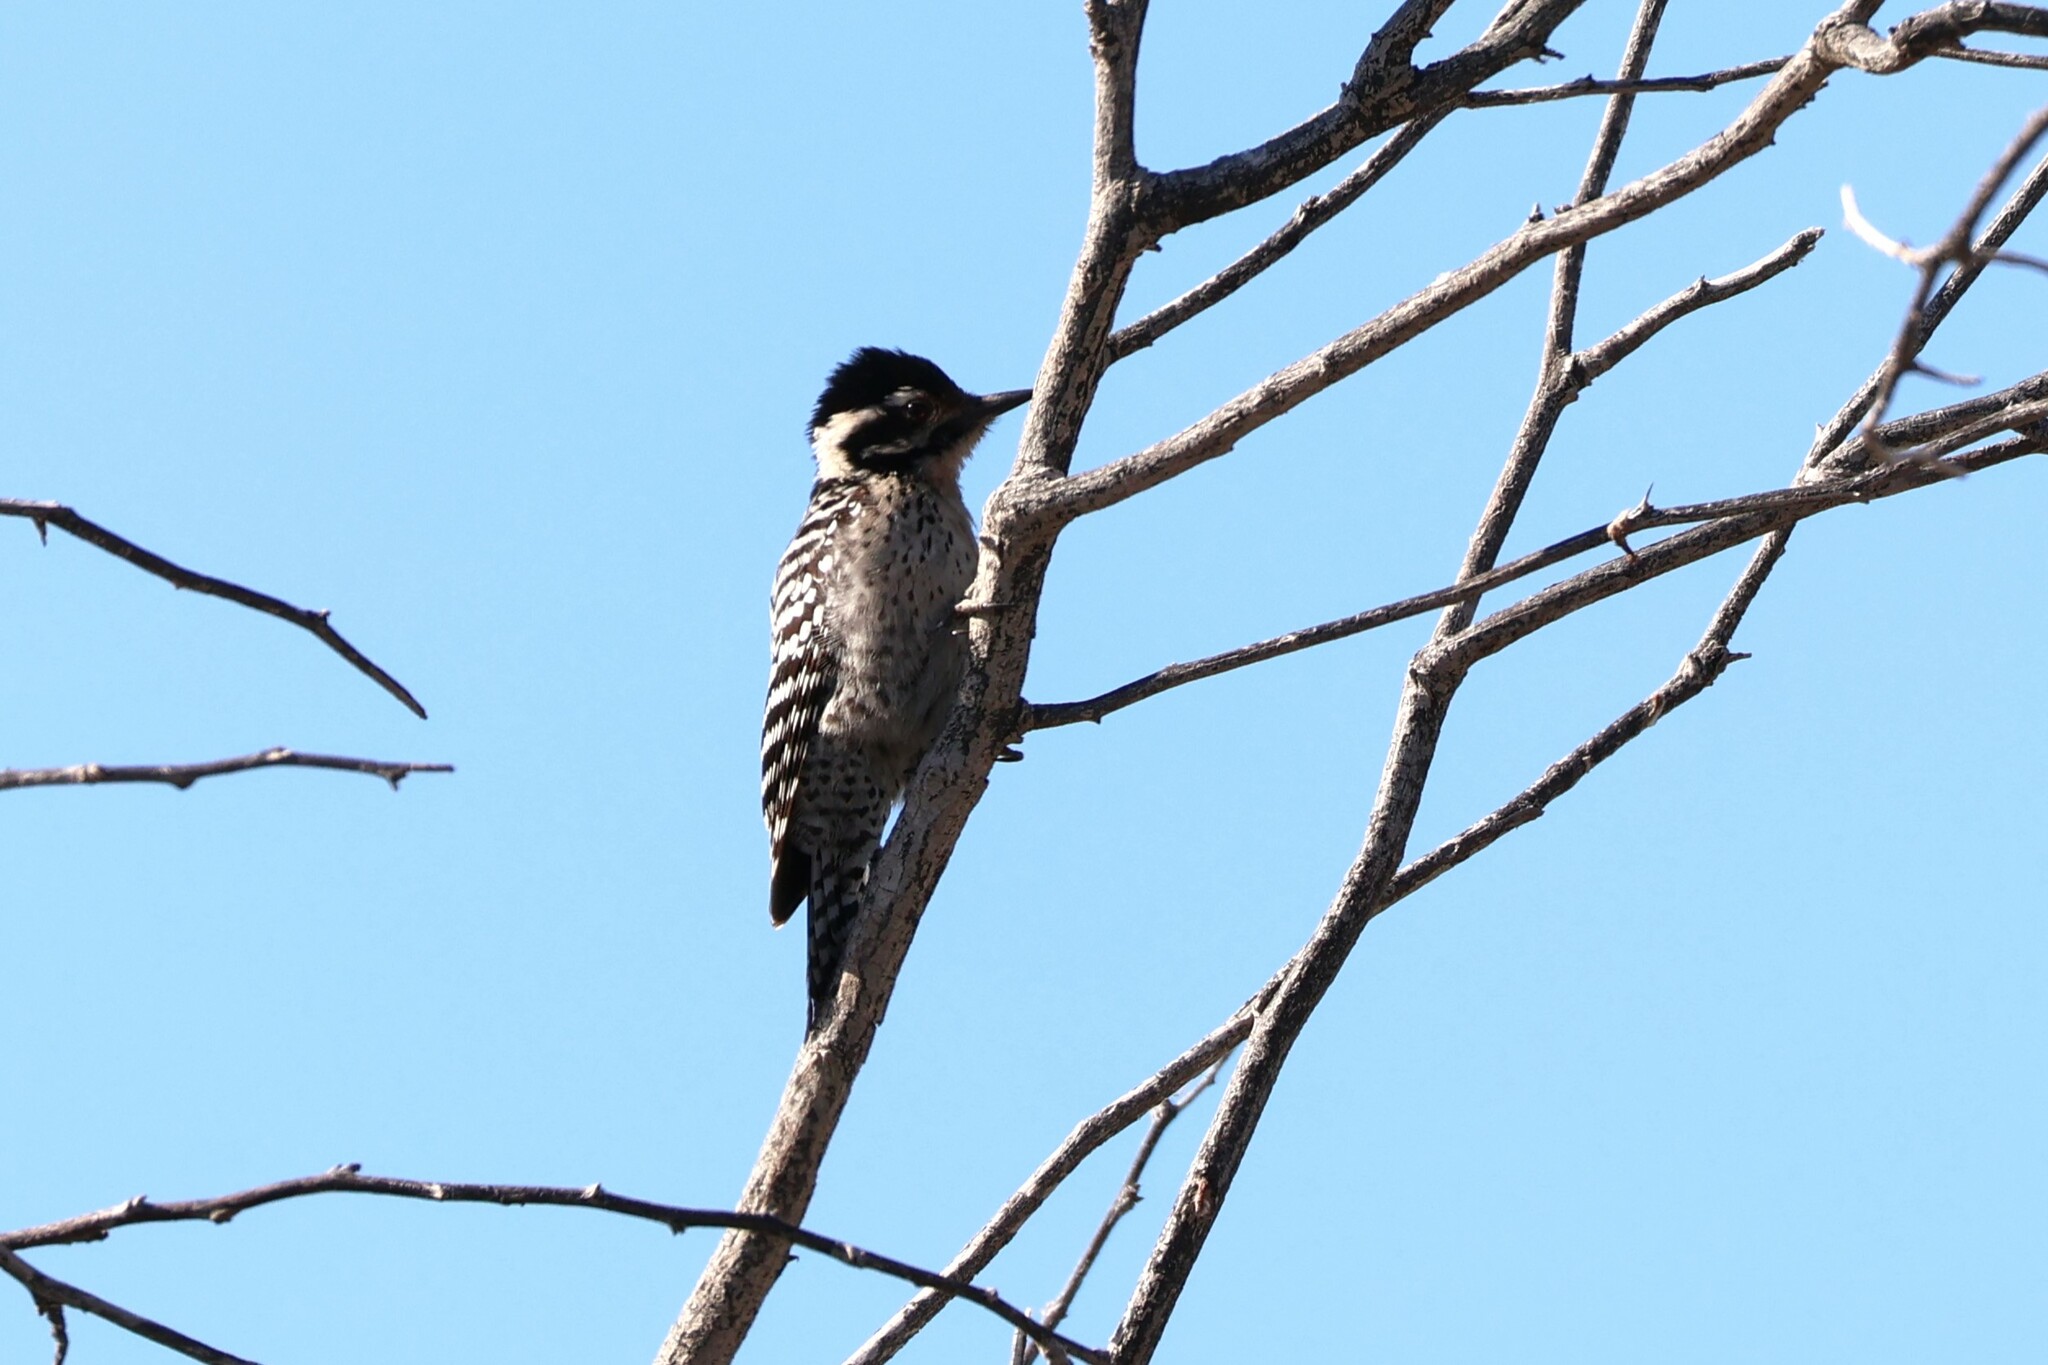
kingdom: Animalia
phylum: Chordata
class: Aves
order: Piciformes
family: Picidae
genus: Dryobates
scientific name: Dryobates scalaris
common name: Ladder-backed woodpecker
